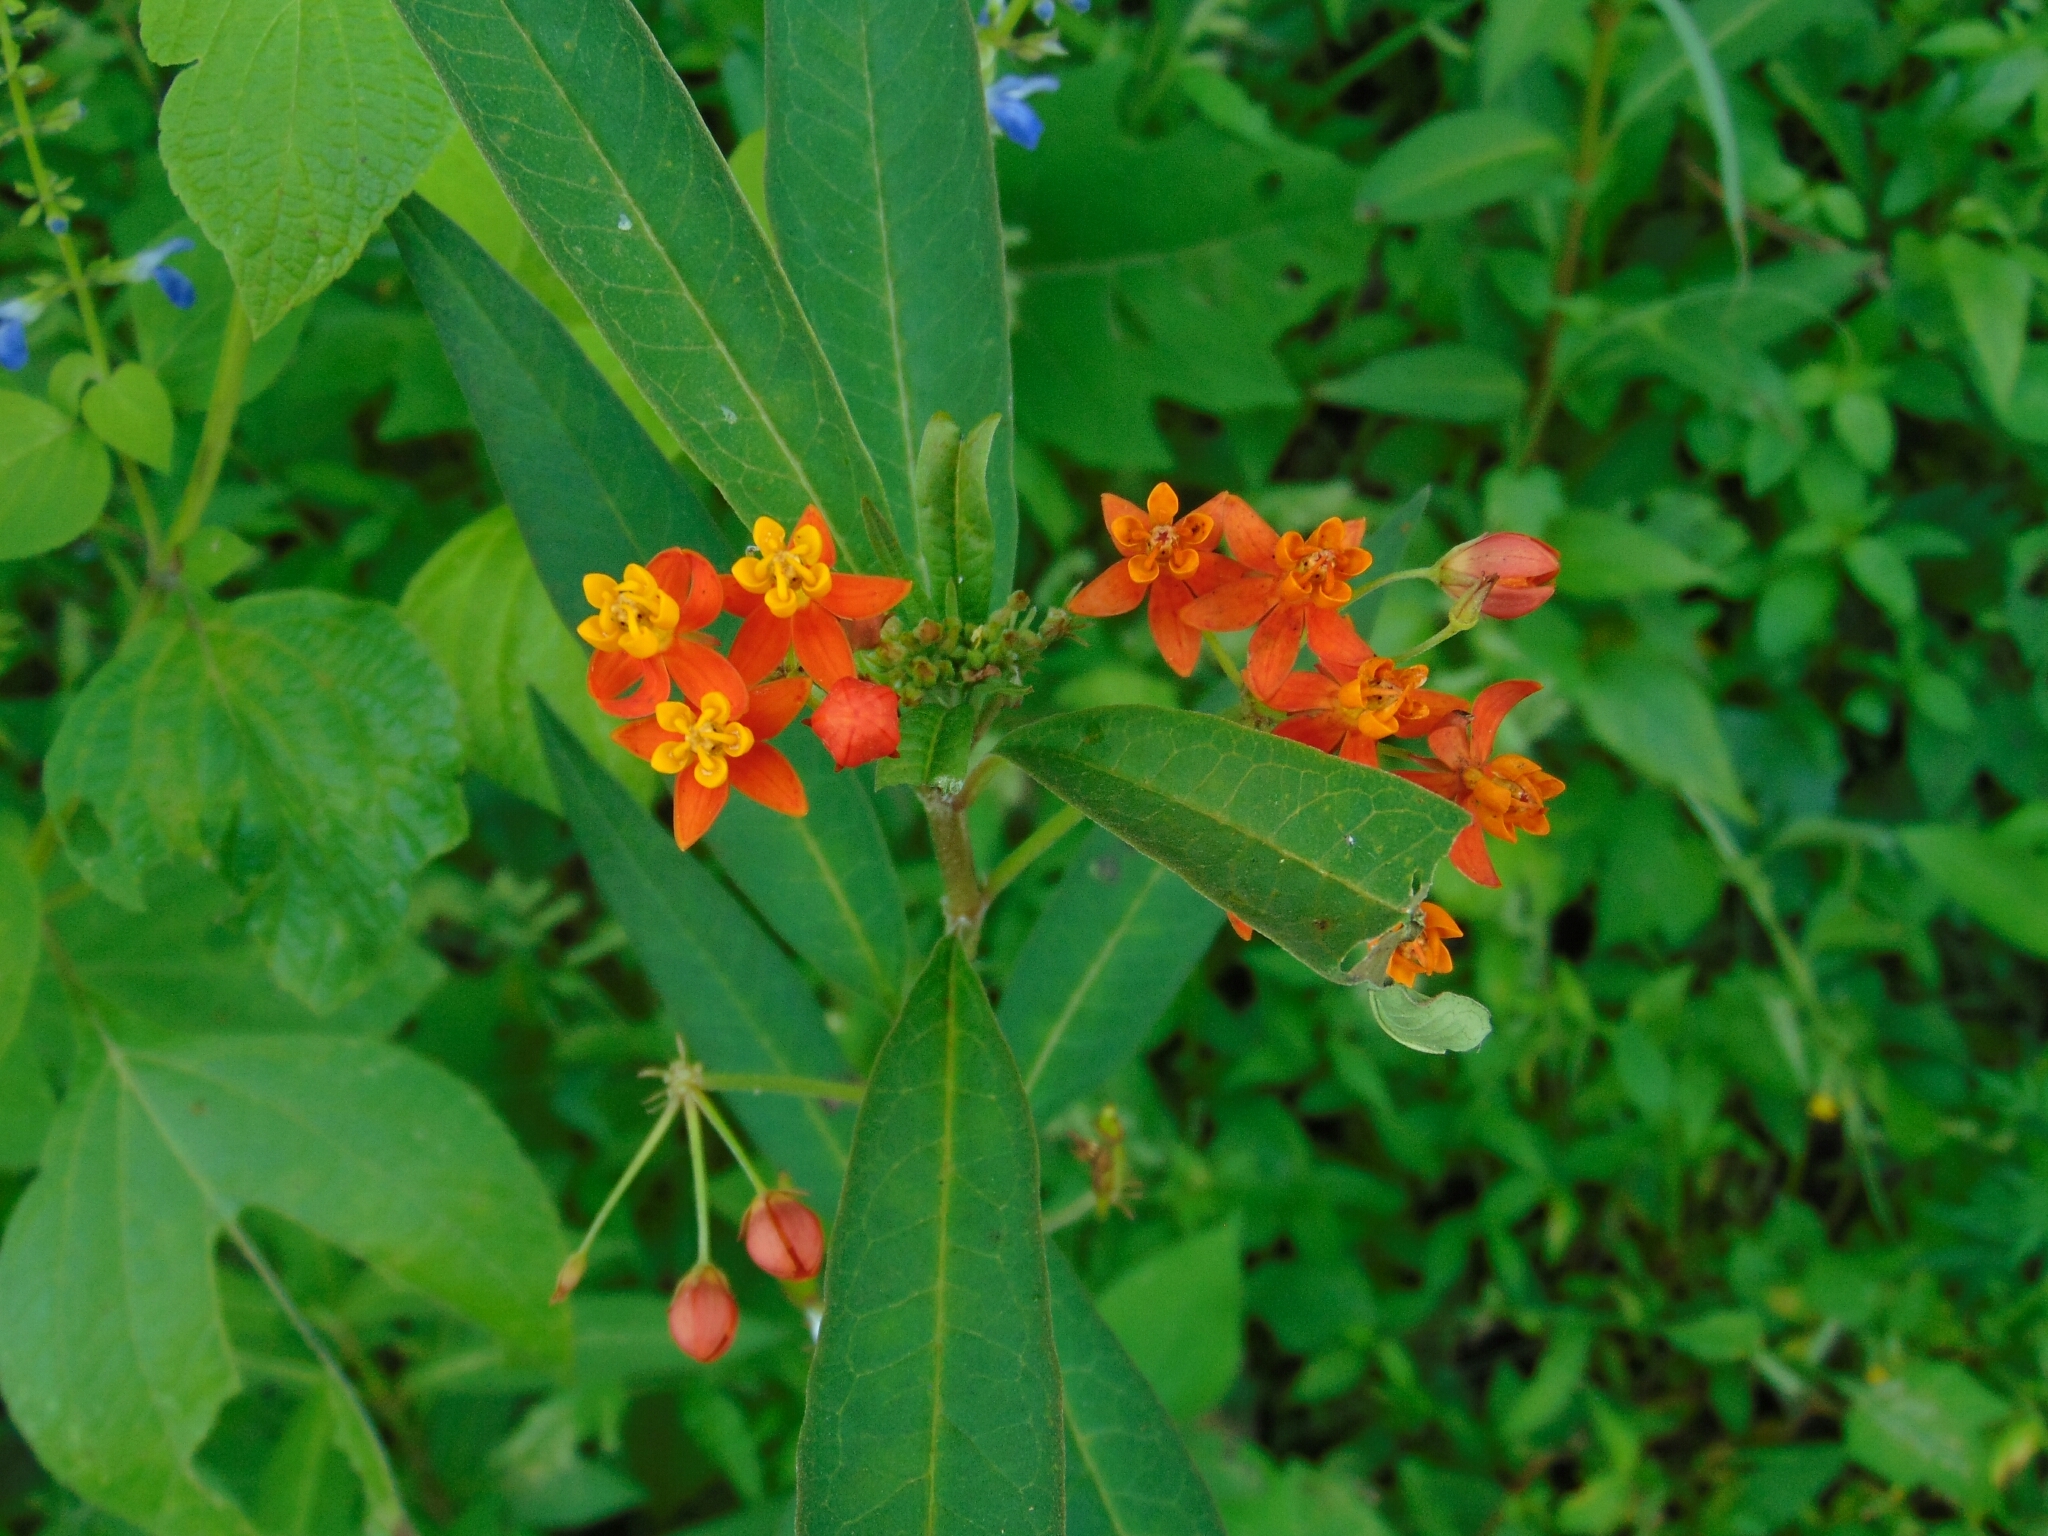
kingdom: Plantae
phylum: Tracheophyta
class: Magnoliopsida
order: Gentianales
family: Apocynaceae
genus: Asclepias
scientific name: Asclepias curassavica
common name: Bloodflower
